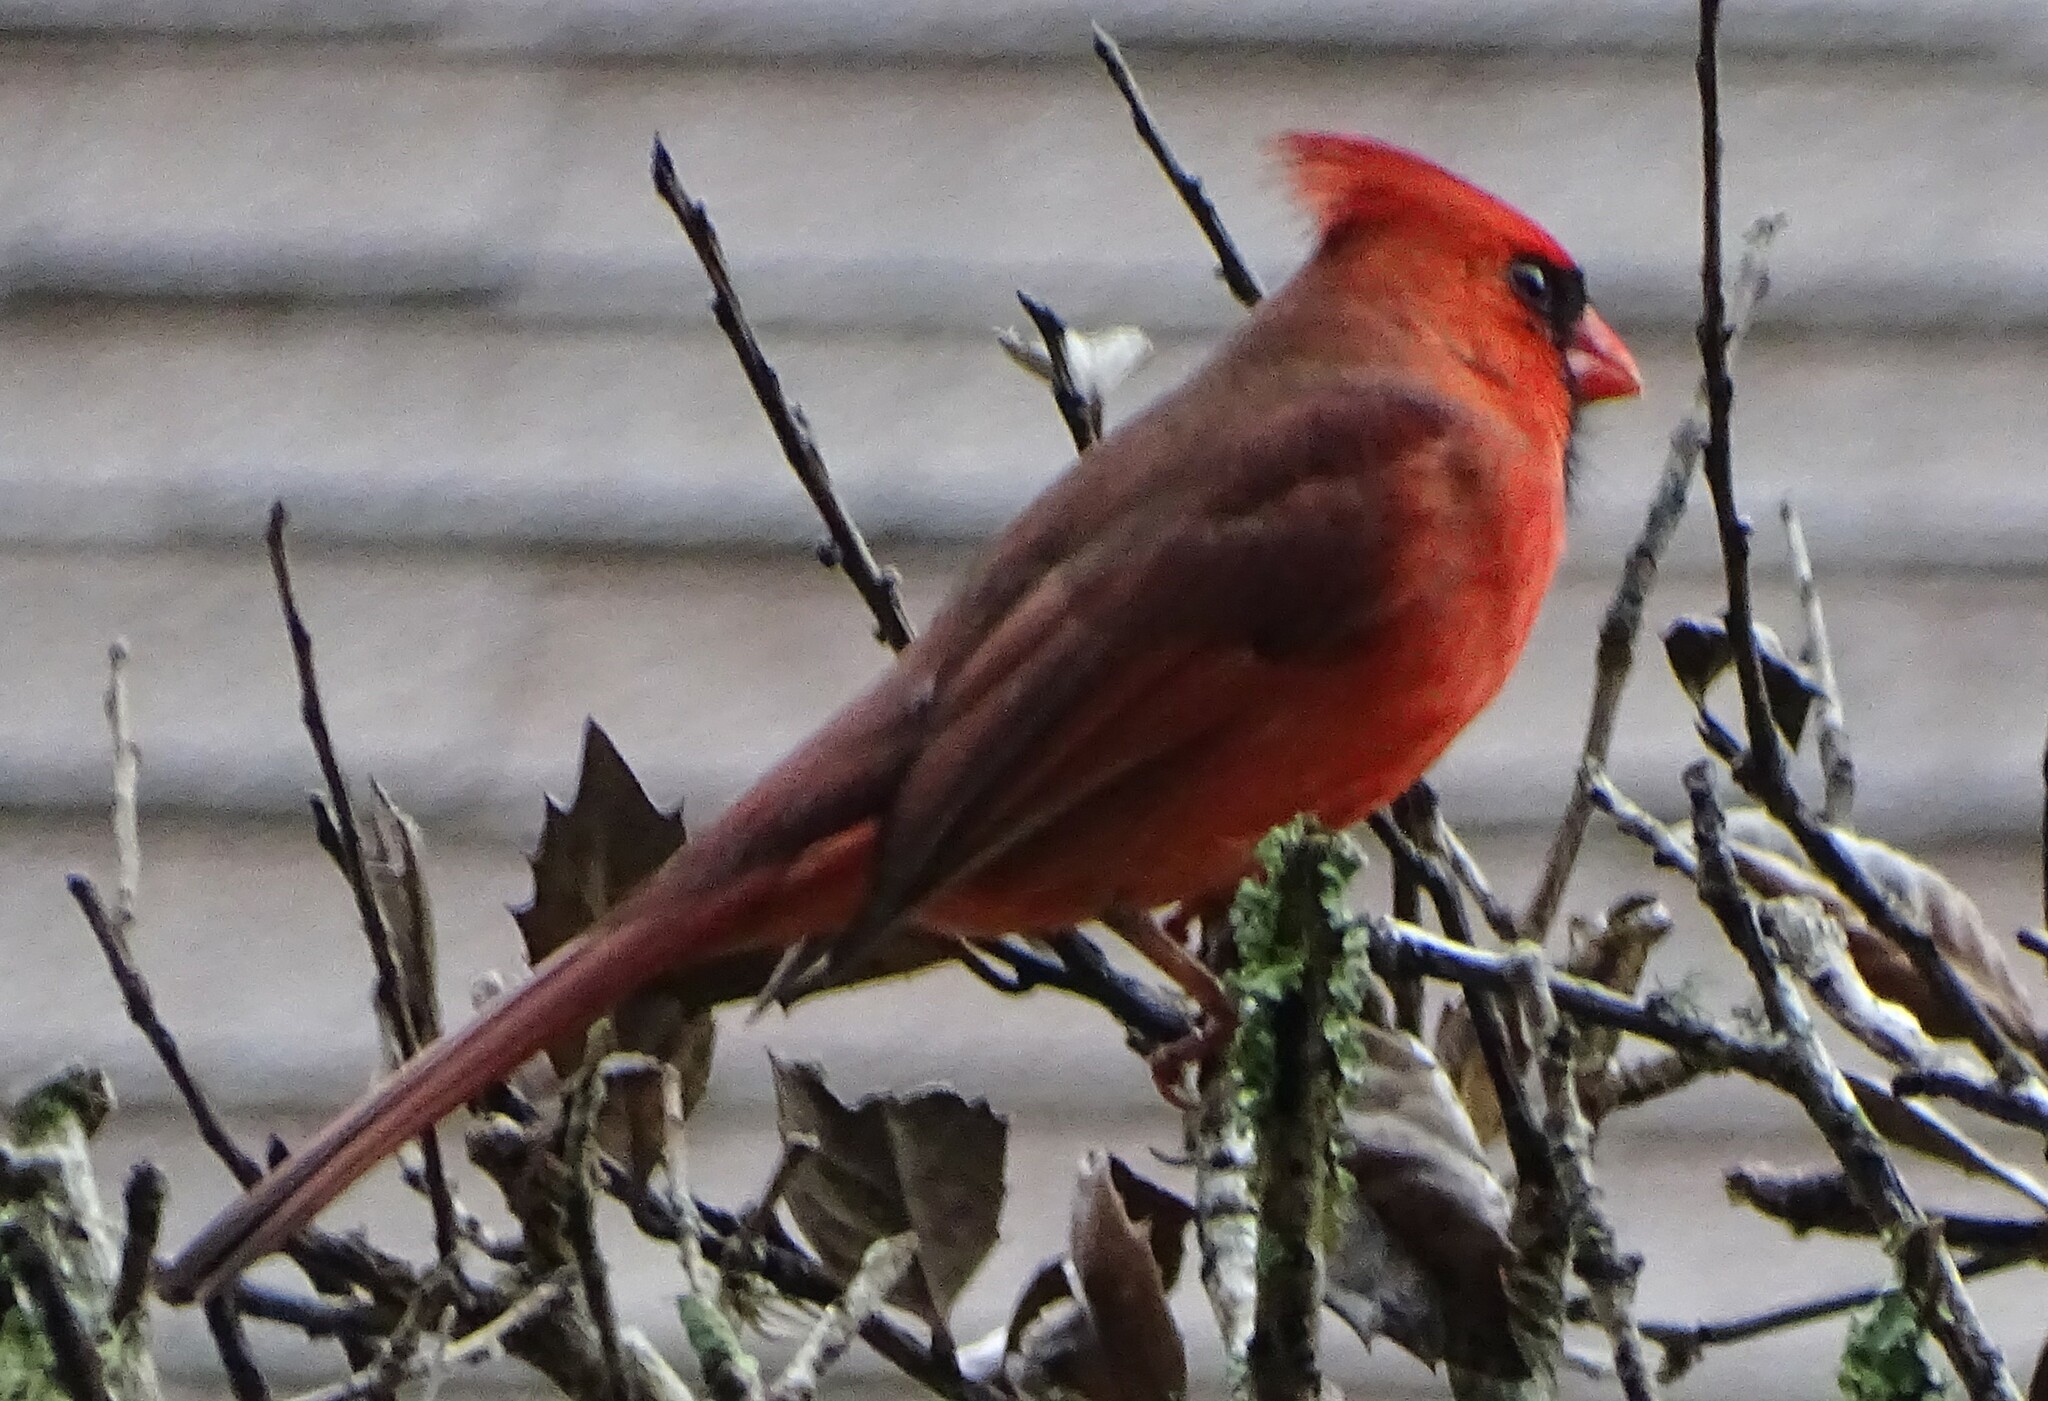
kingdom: Animalia
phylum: Chordata
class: Aves
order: Passeriformes
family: Cardinalidae
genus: Cardinalis
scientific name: Cardinalis cardinalis
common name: Northern cardinal
